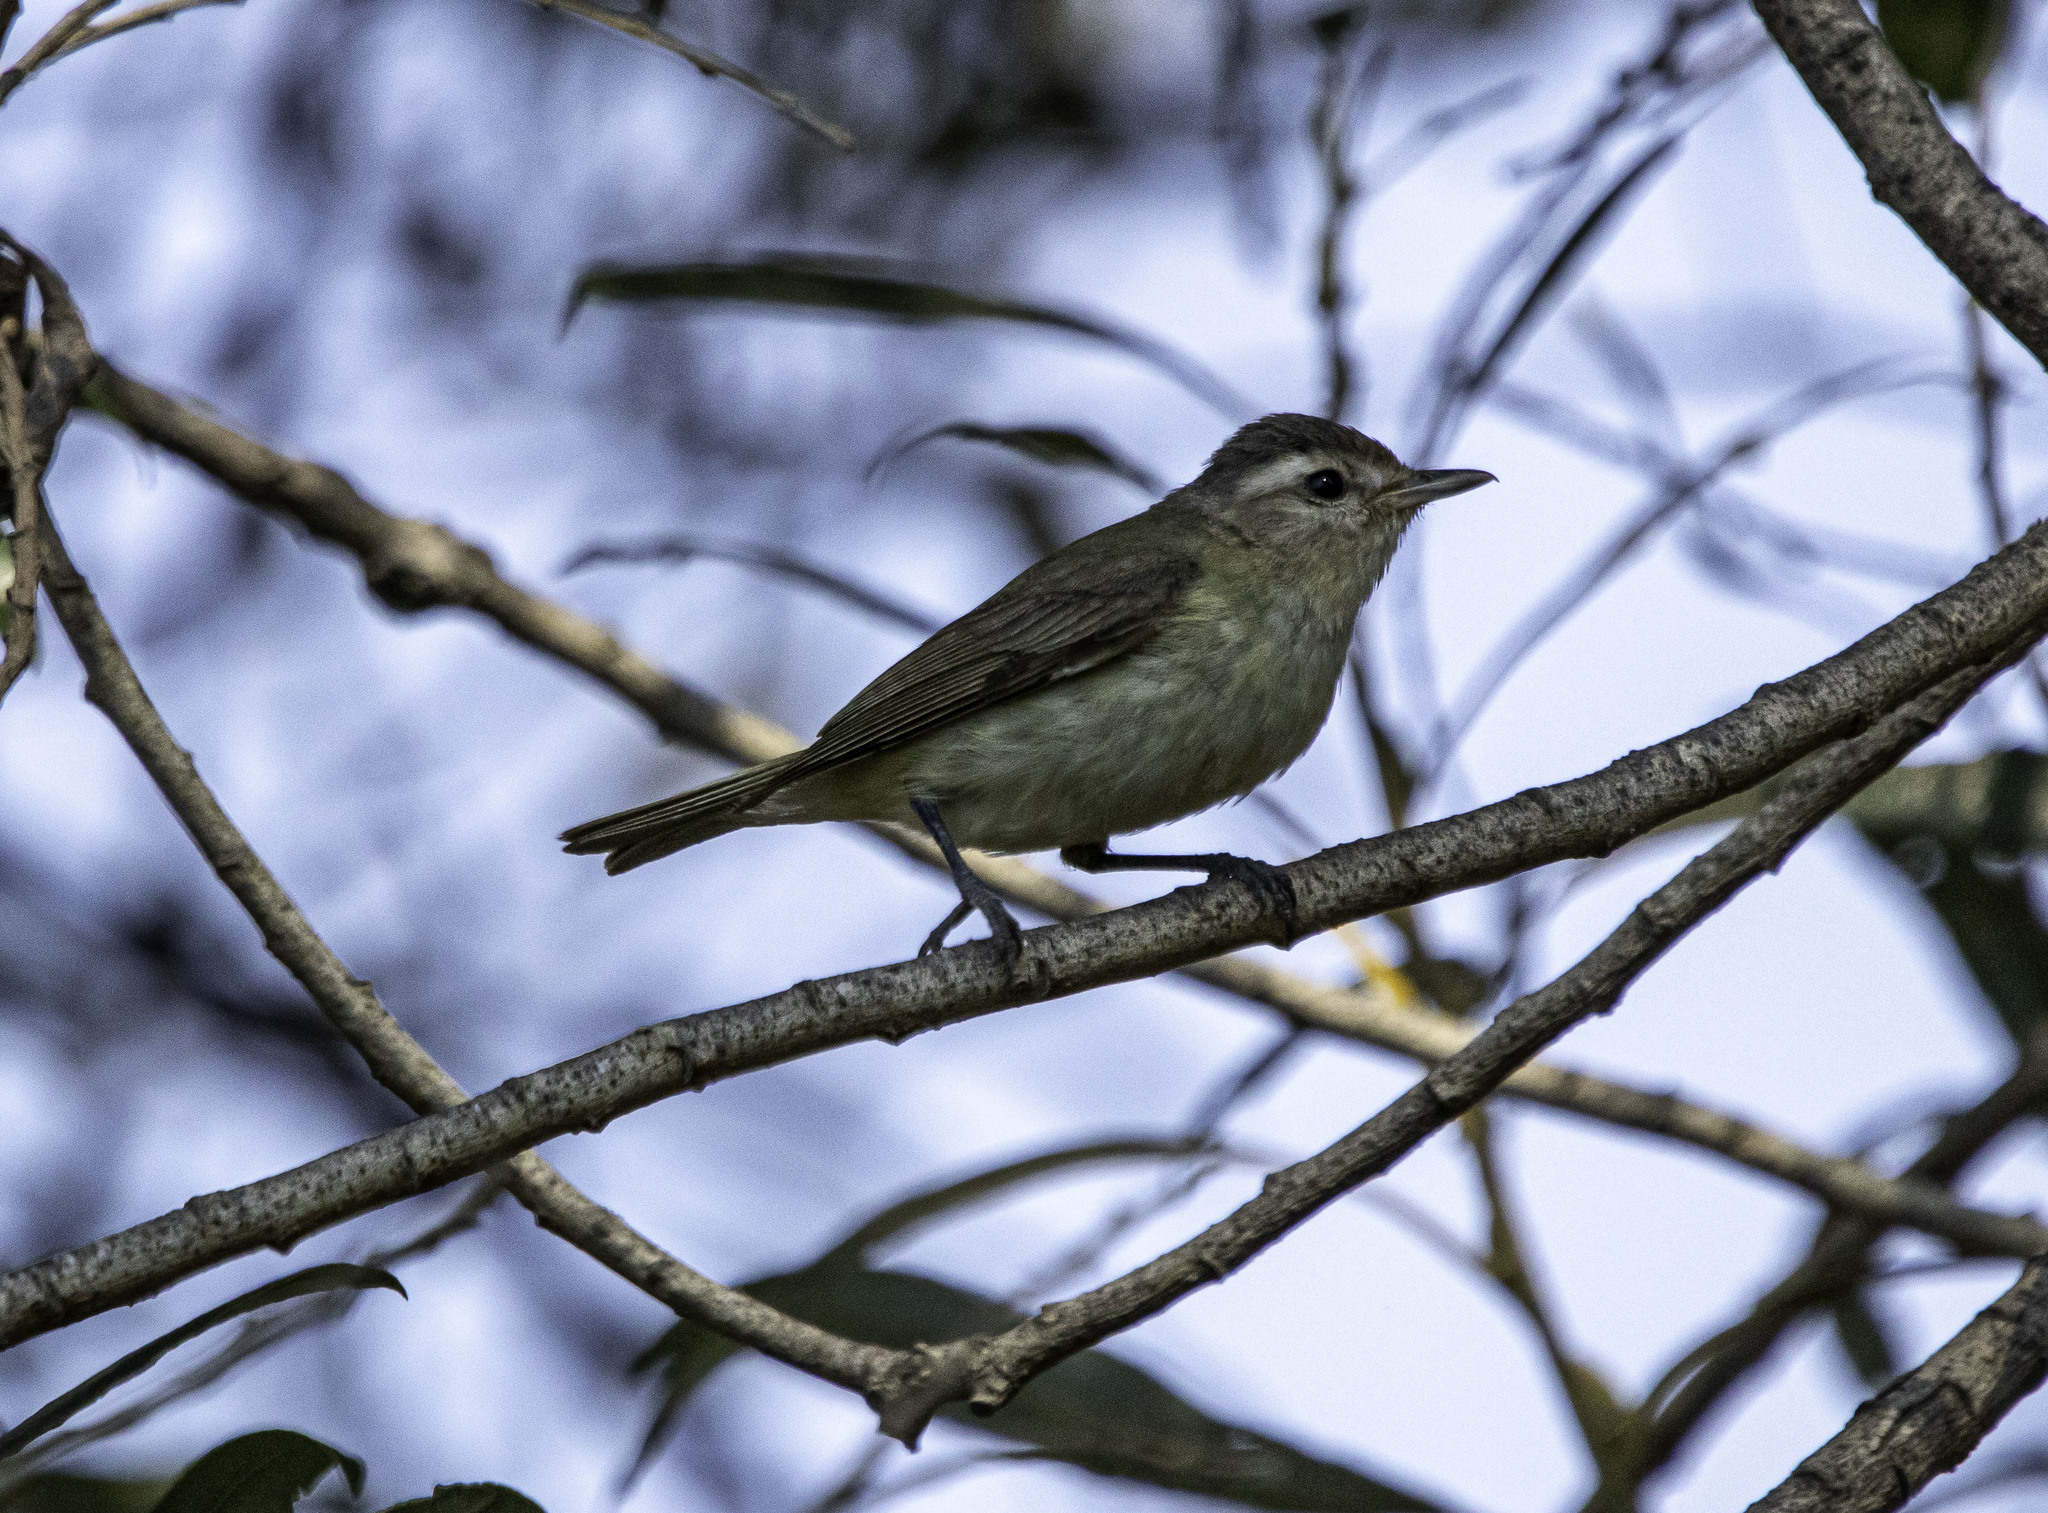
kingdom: Animalia
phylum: Chordata
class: Aves
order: Passeriformes
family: Vireonidae
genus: Vireo
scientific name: Vireo gilvus
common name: Warbling vireo
